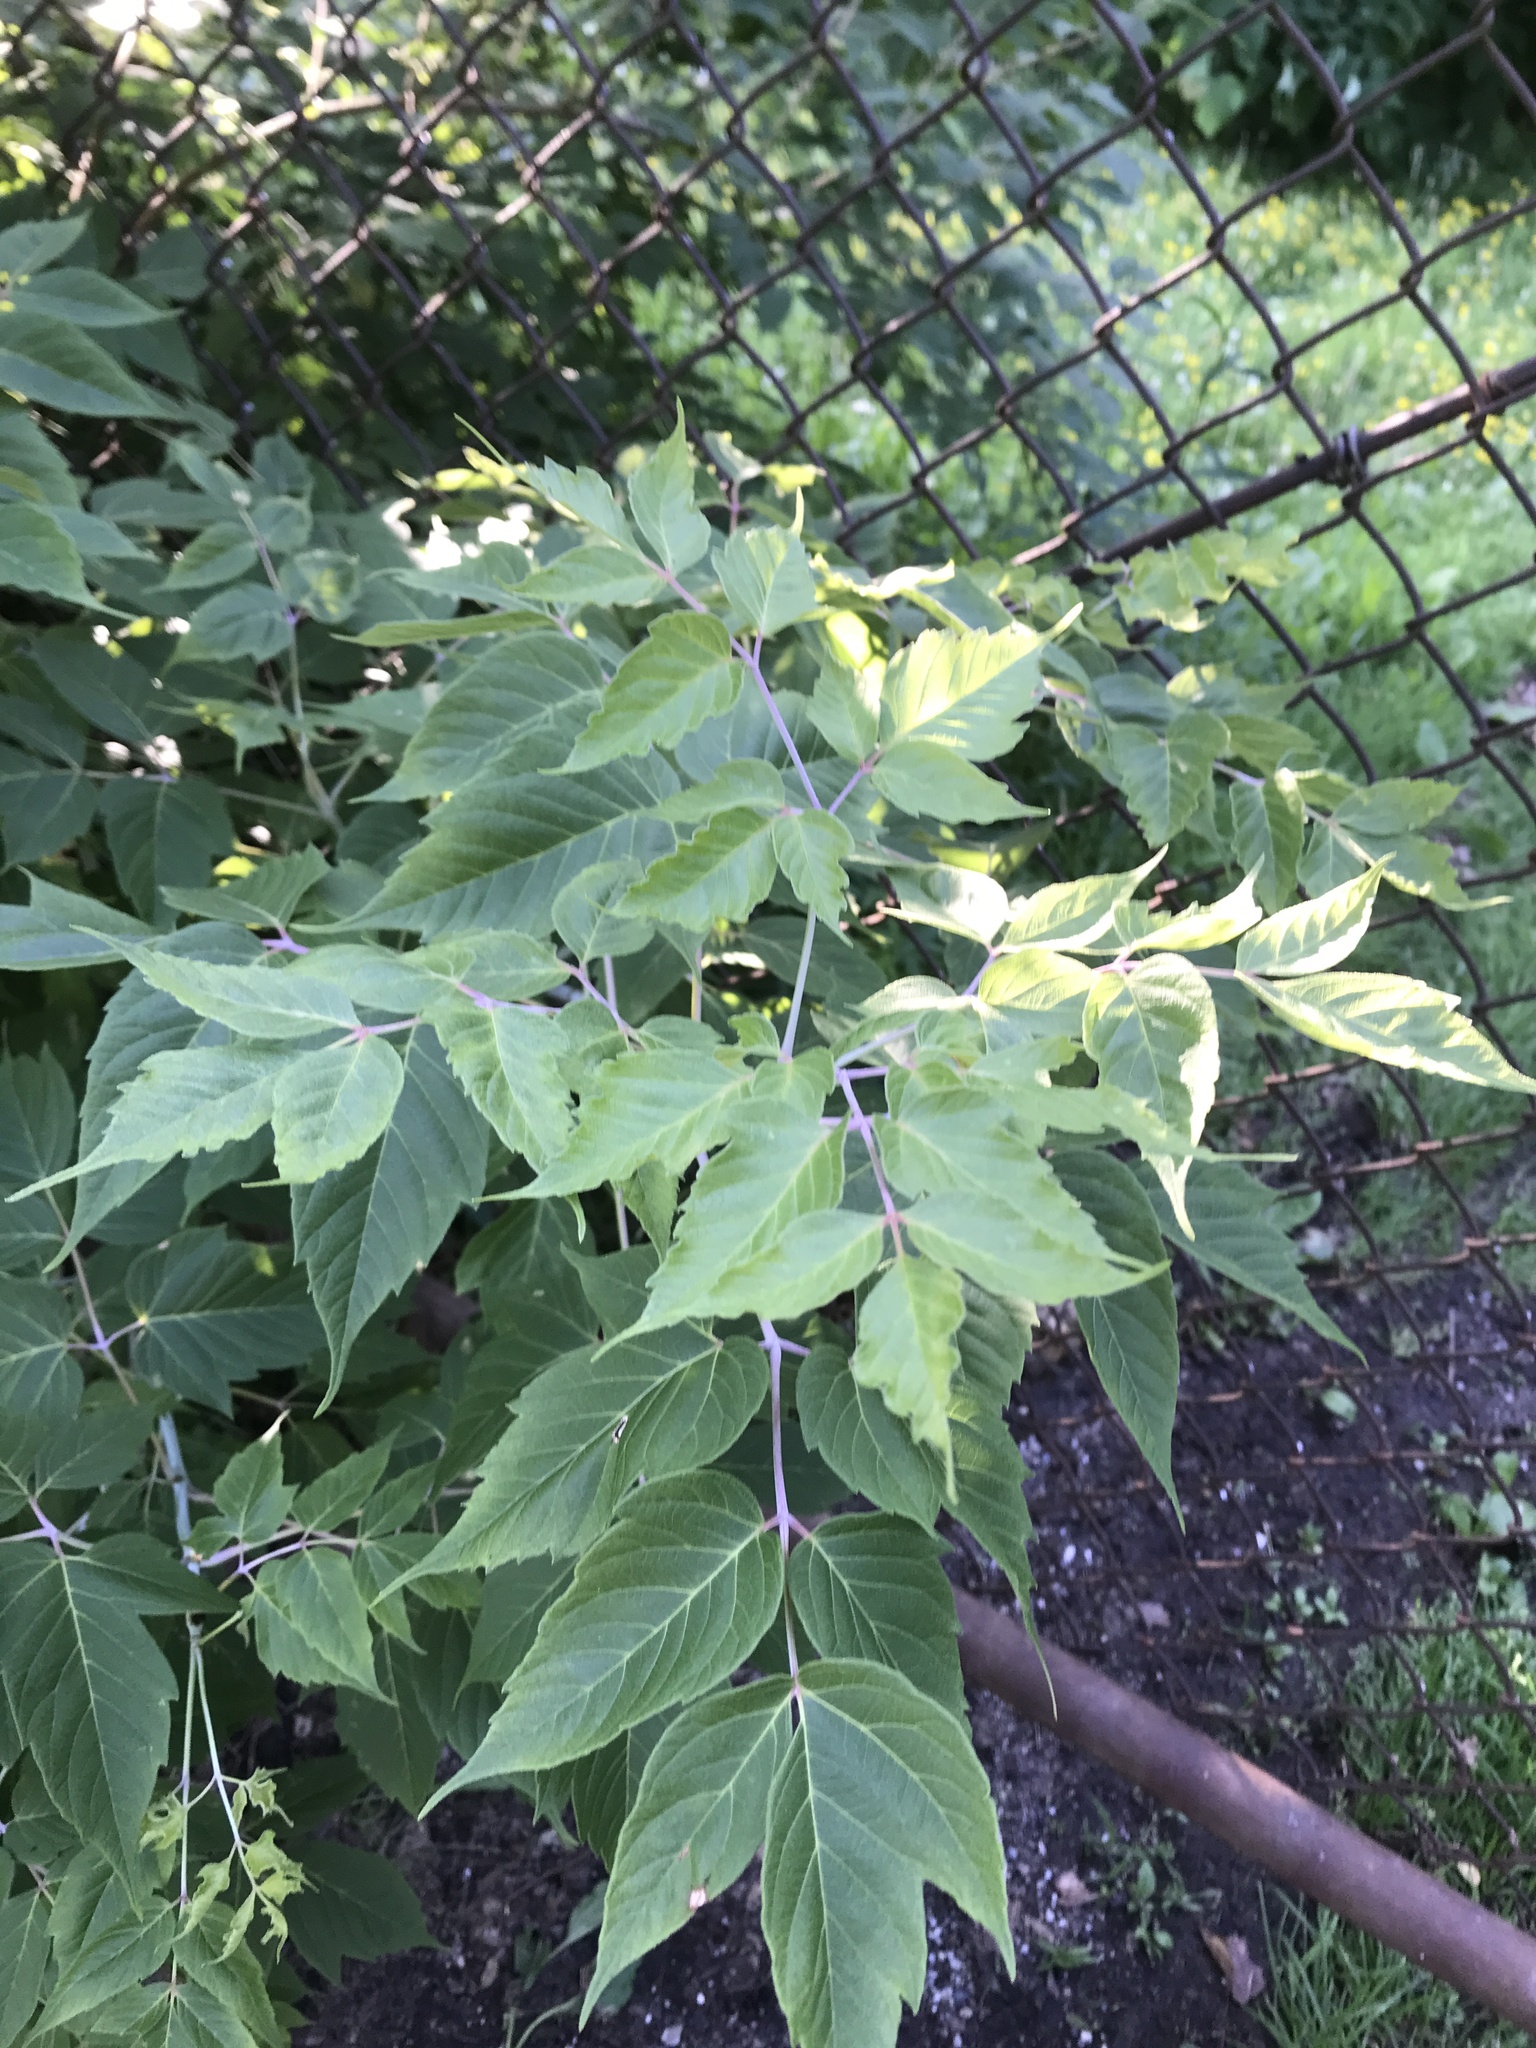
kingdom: Plantae
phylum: Tracheophyta
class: Magnoliopsida
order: Sapindales
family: Sapindaceae
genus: Acer
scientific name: Acer negundo
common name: Ashleaf maple
